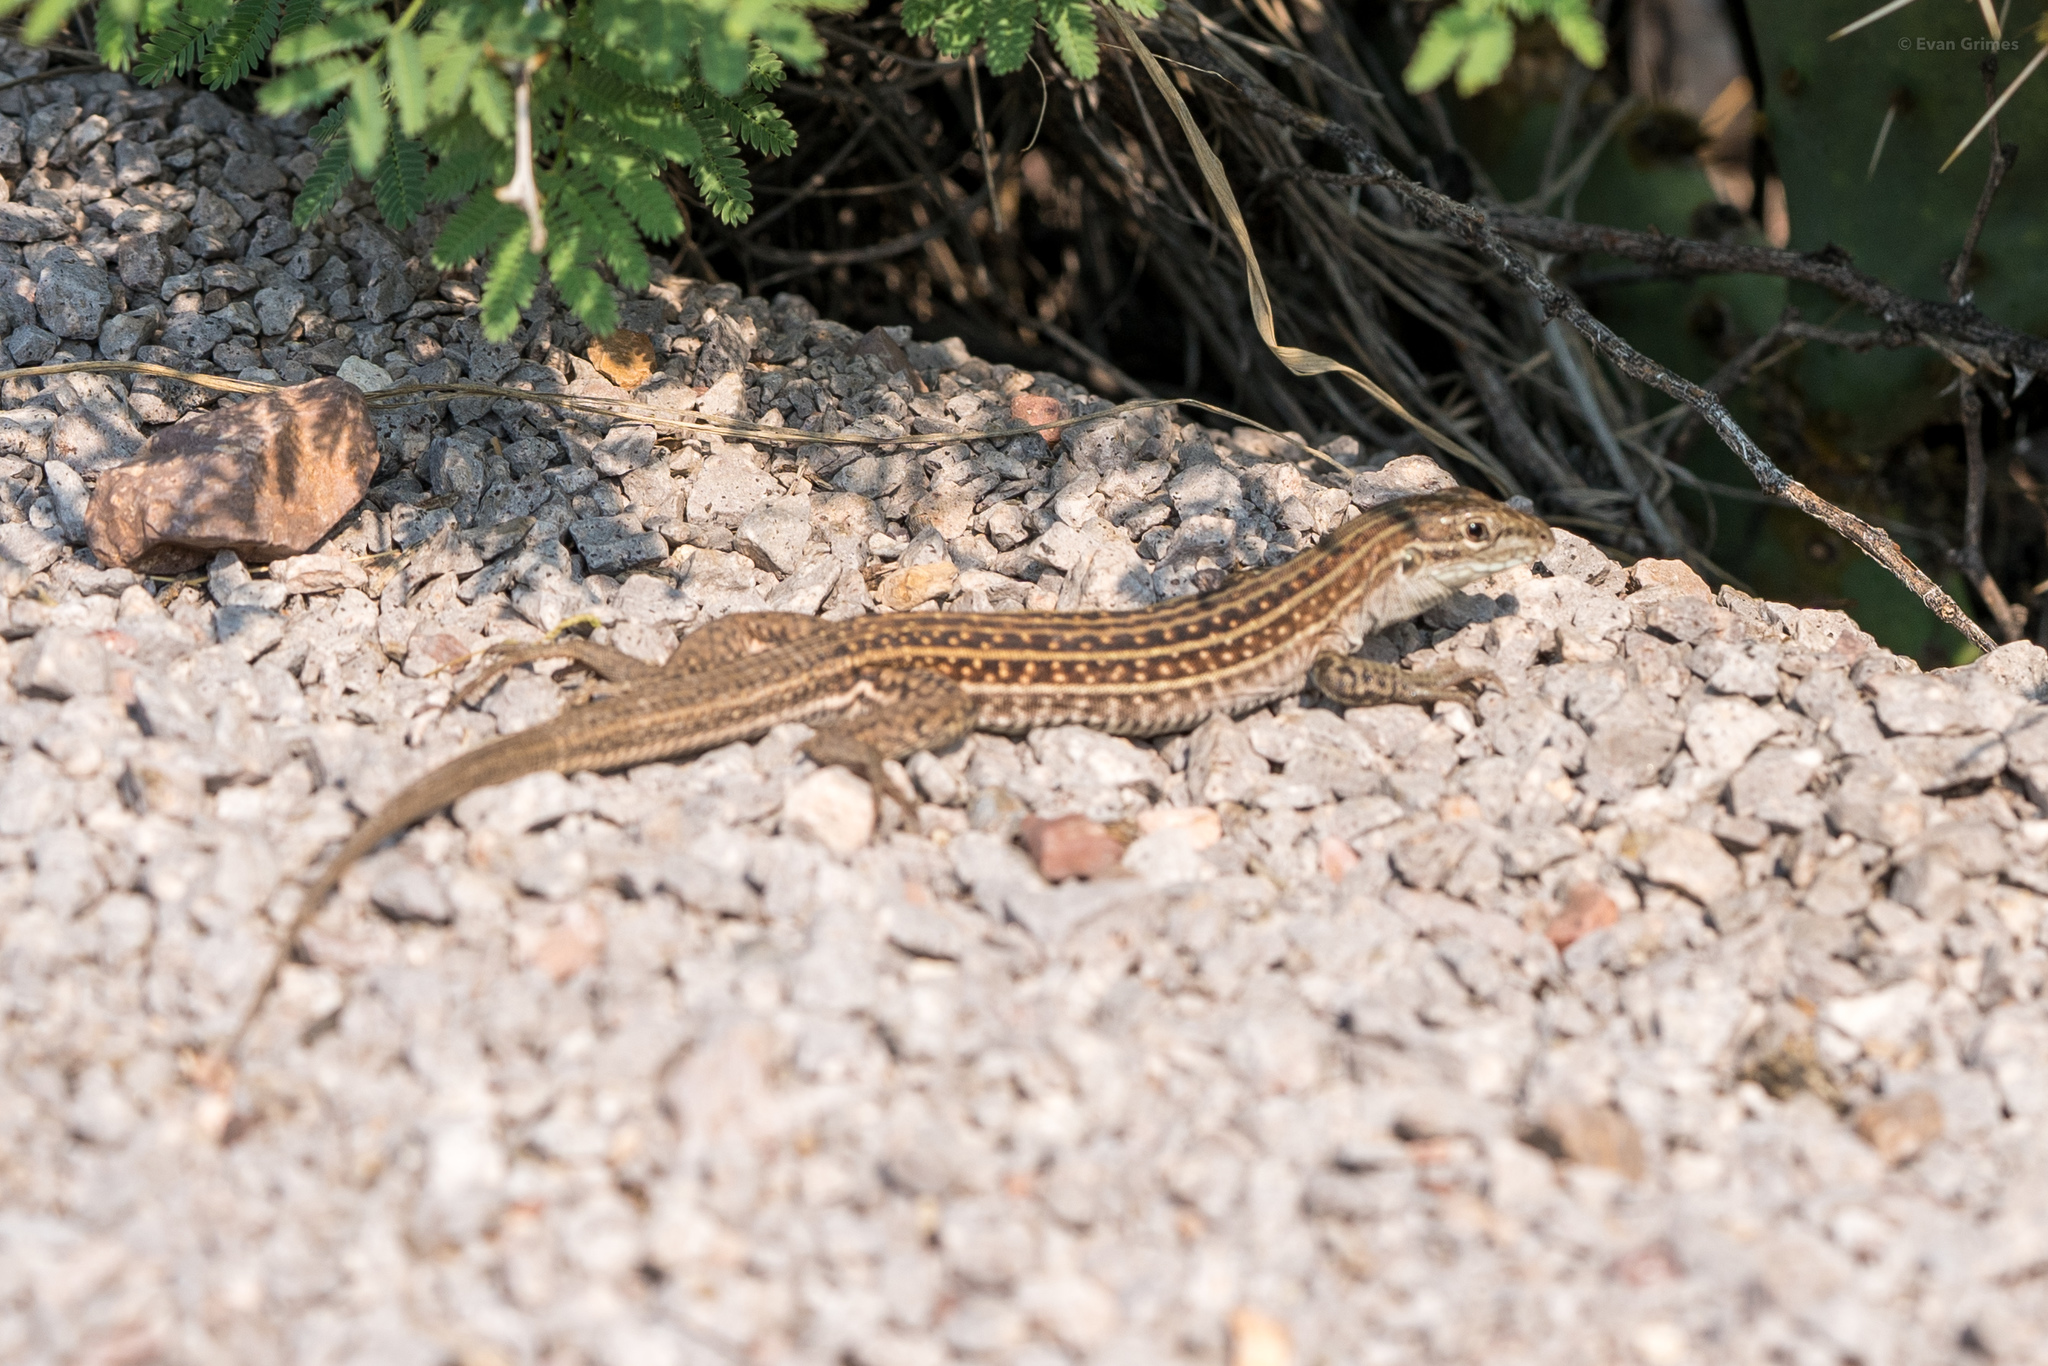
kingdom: Animalia
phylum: Chordata
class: Squamata
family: Teiidae
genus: Aspidoscelis
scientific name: Aspidoscelis exsanguis
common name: Chihuahuan spotted whiptail
